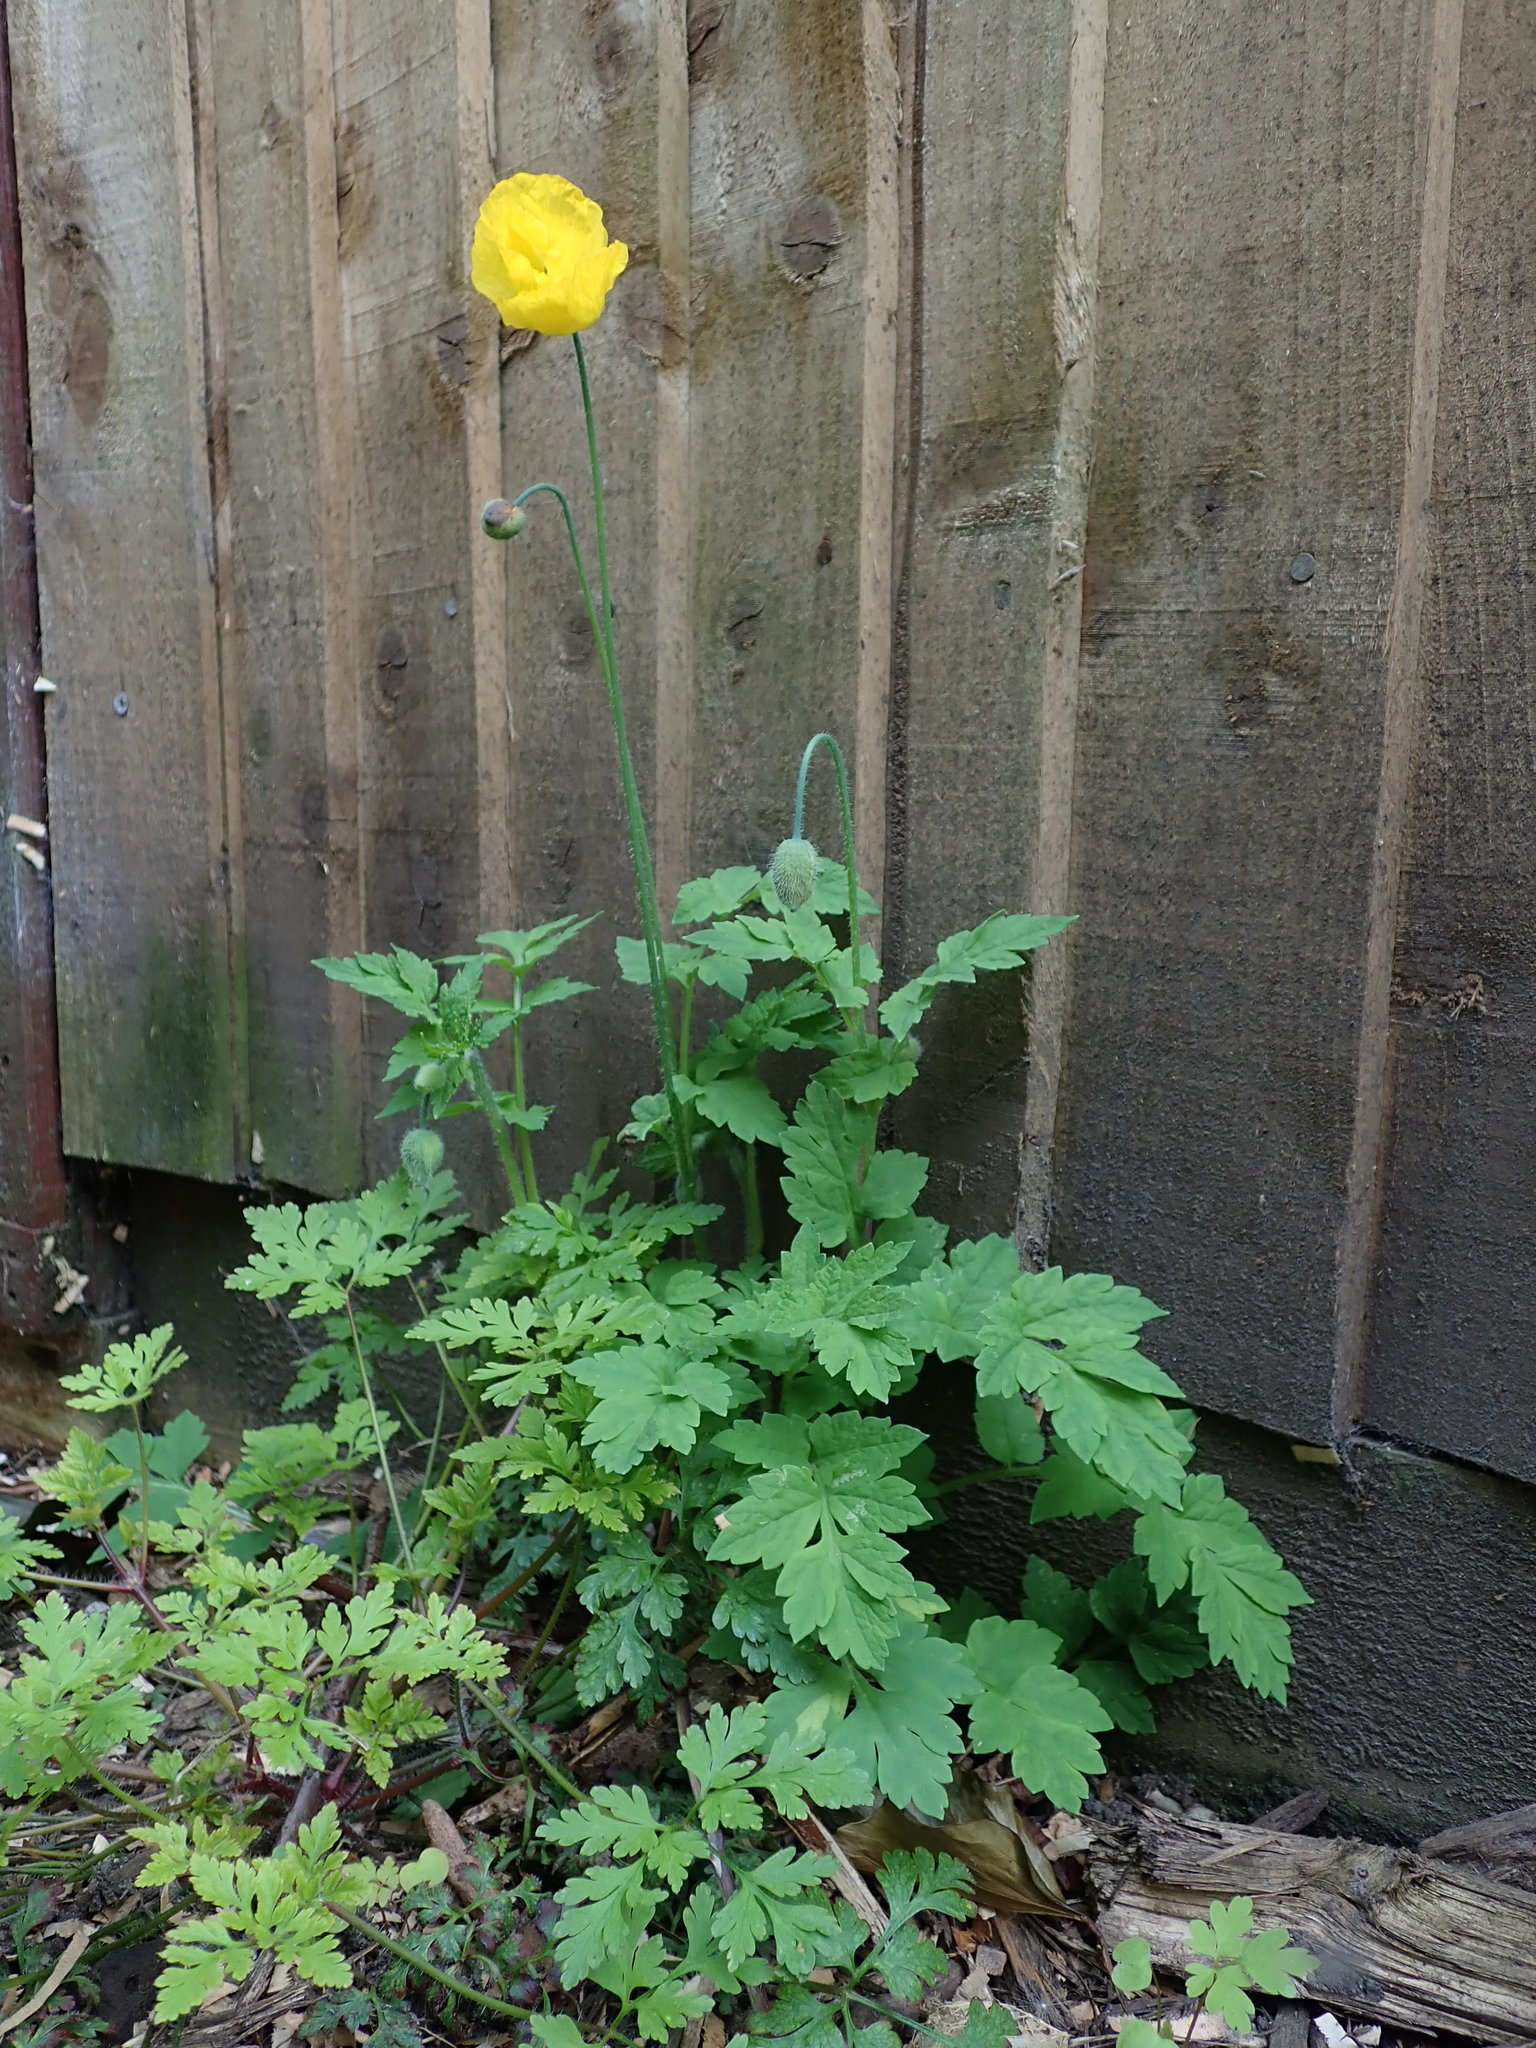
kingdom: Plantae
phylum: Tracheophyta
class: Magnoliopsida
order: Ranunculales
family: Papaveraceae
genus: Papaver
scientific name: Papaver cambricum
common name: Poppy
